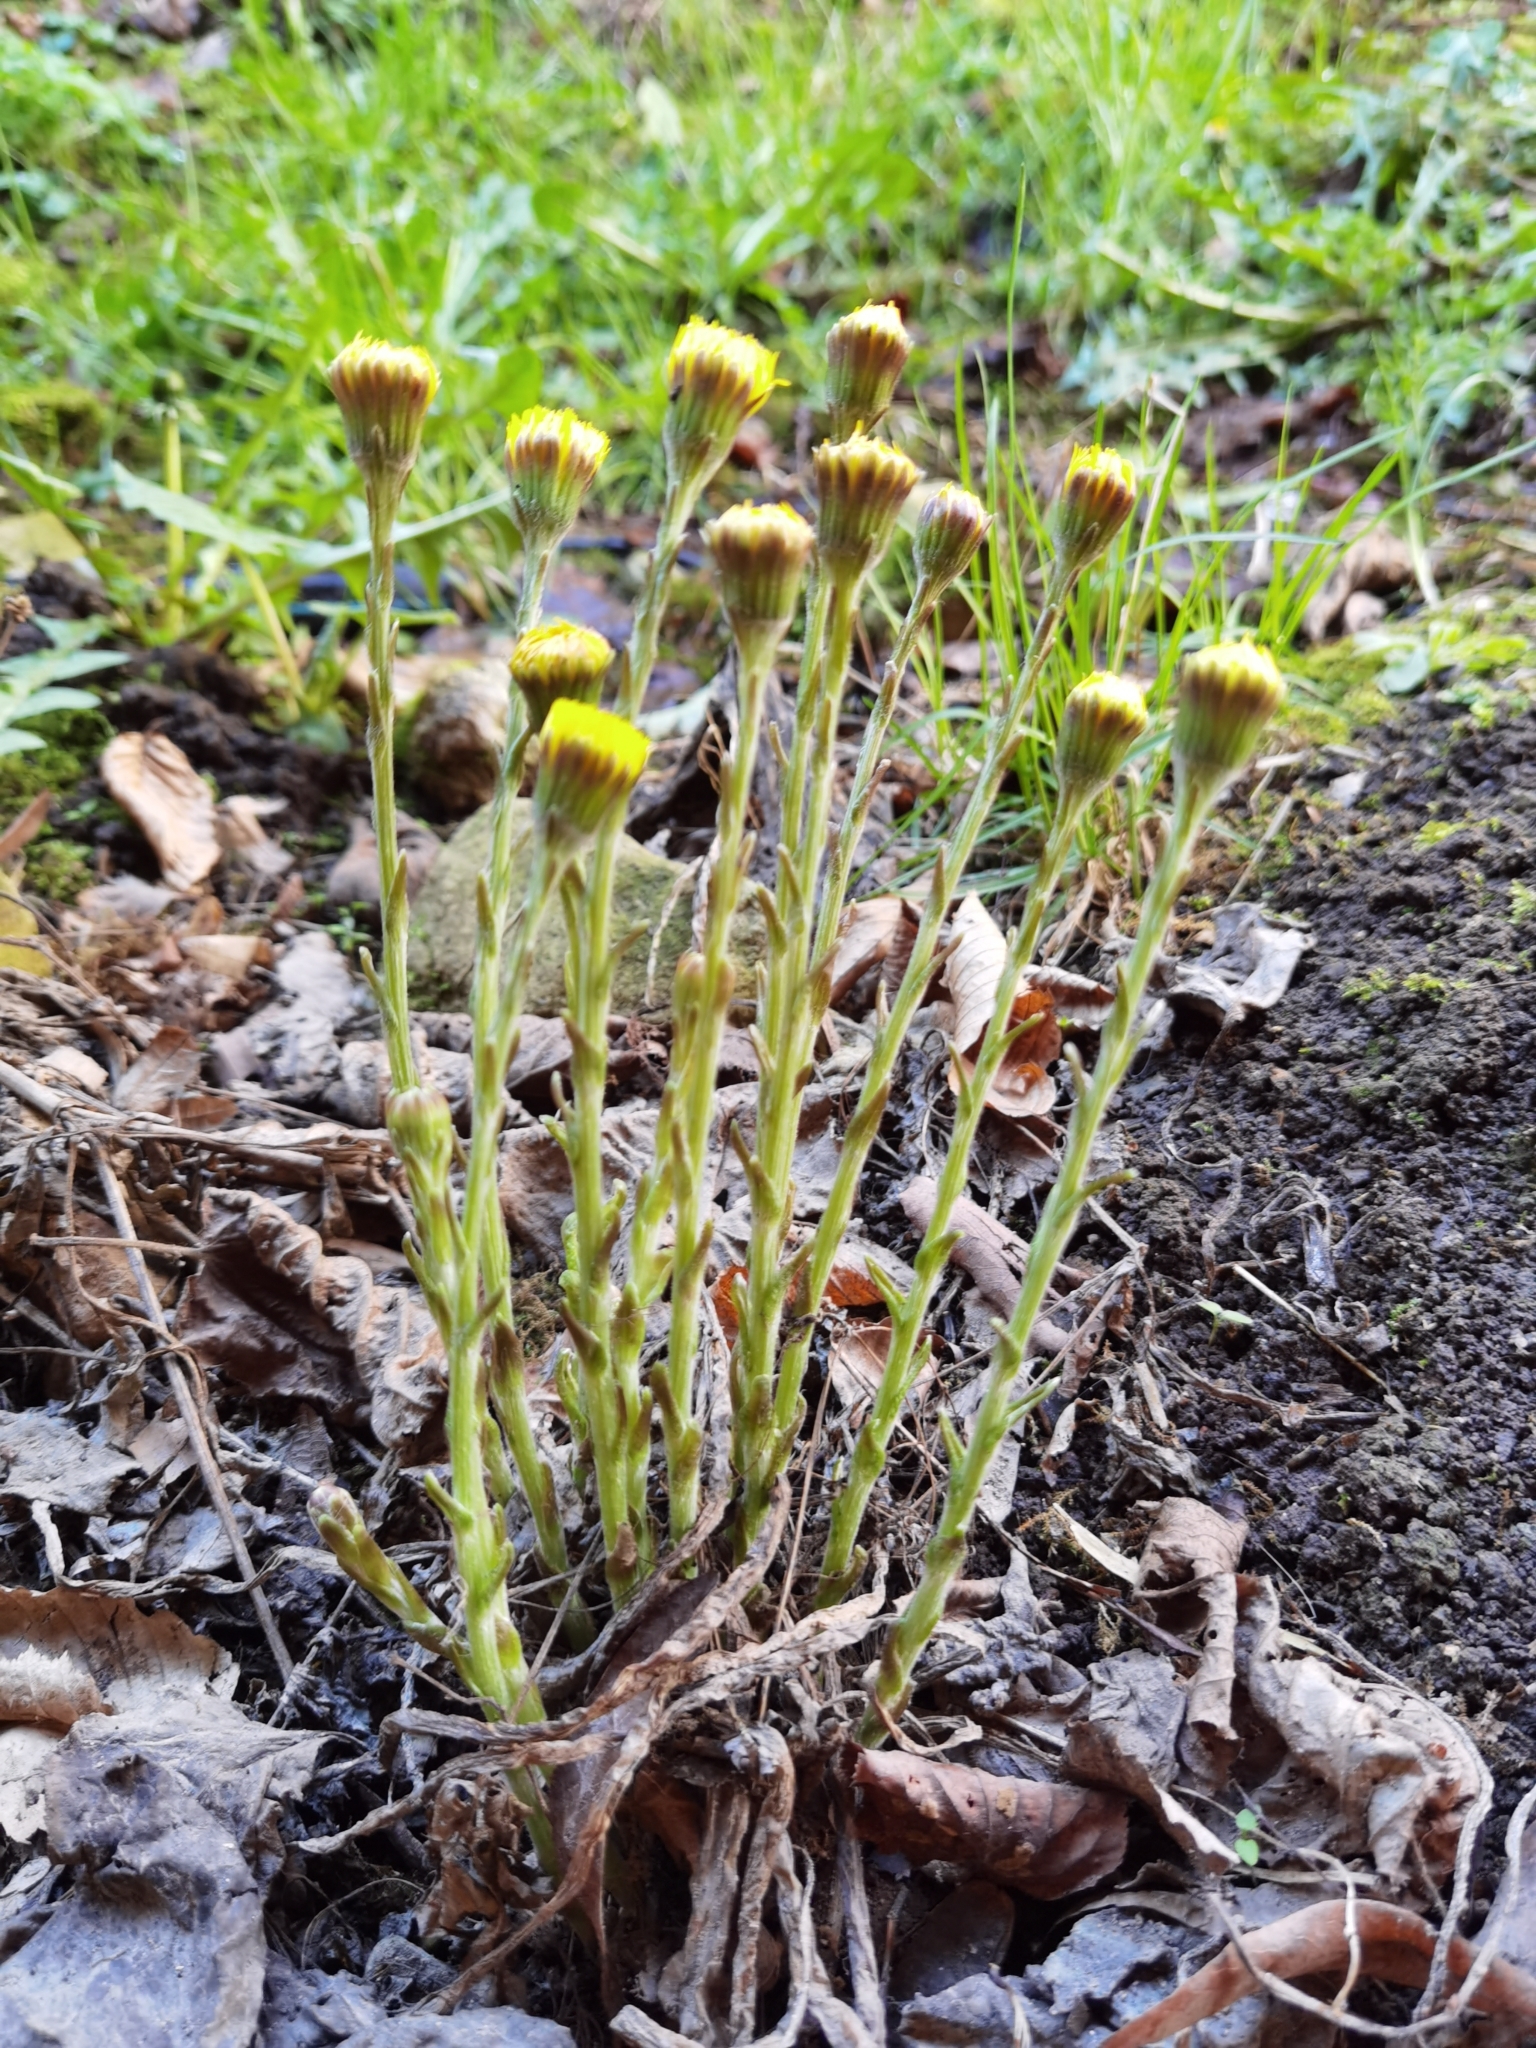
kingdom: Plantae
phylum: Tracheophyta
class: Magnoliopsida
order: Asterales
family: Asteraceae
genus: Tussilago
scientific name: Tussilago farfara
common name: Coltsfoot
